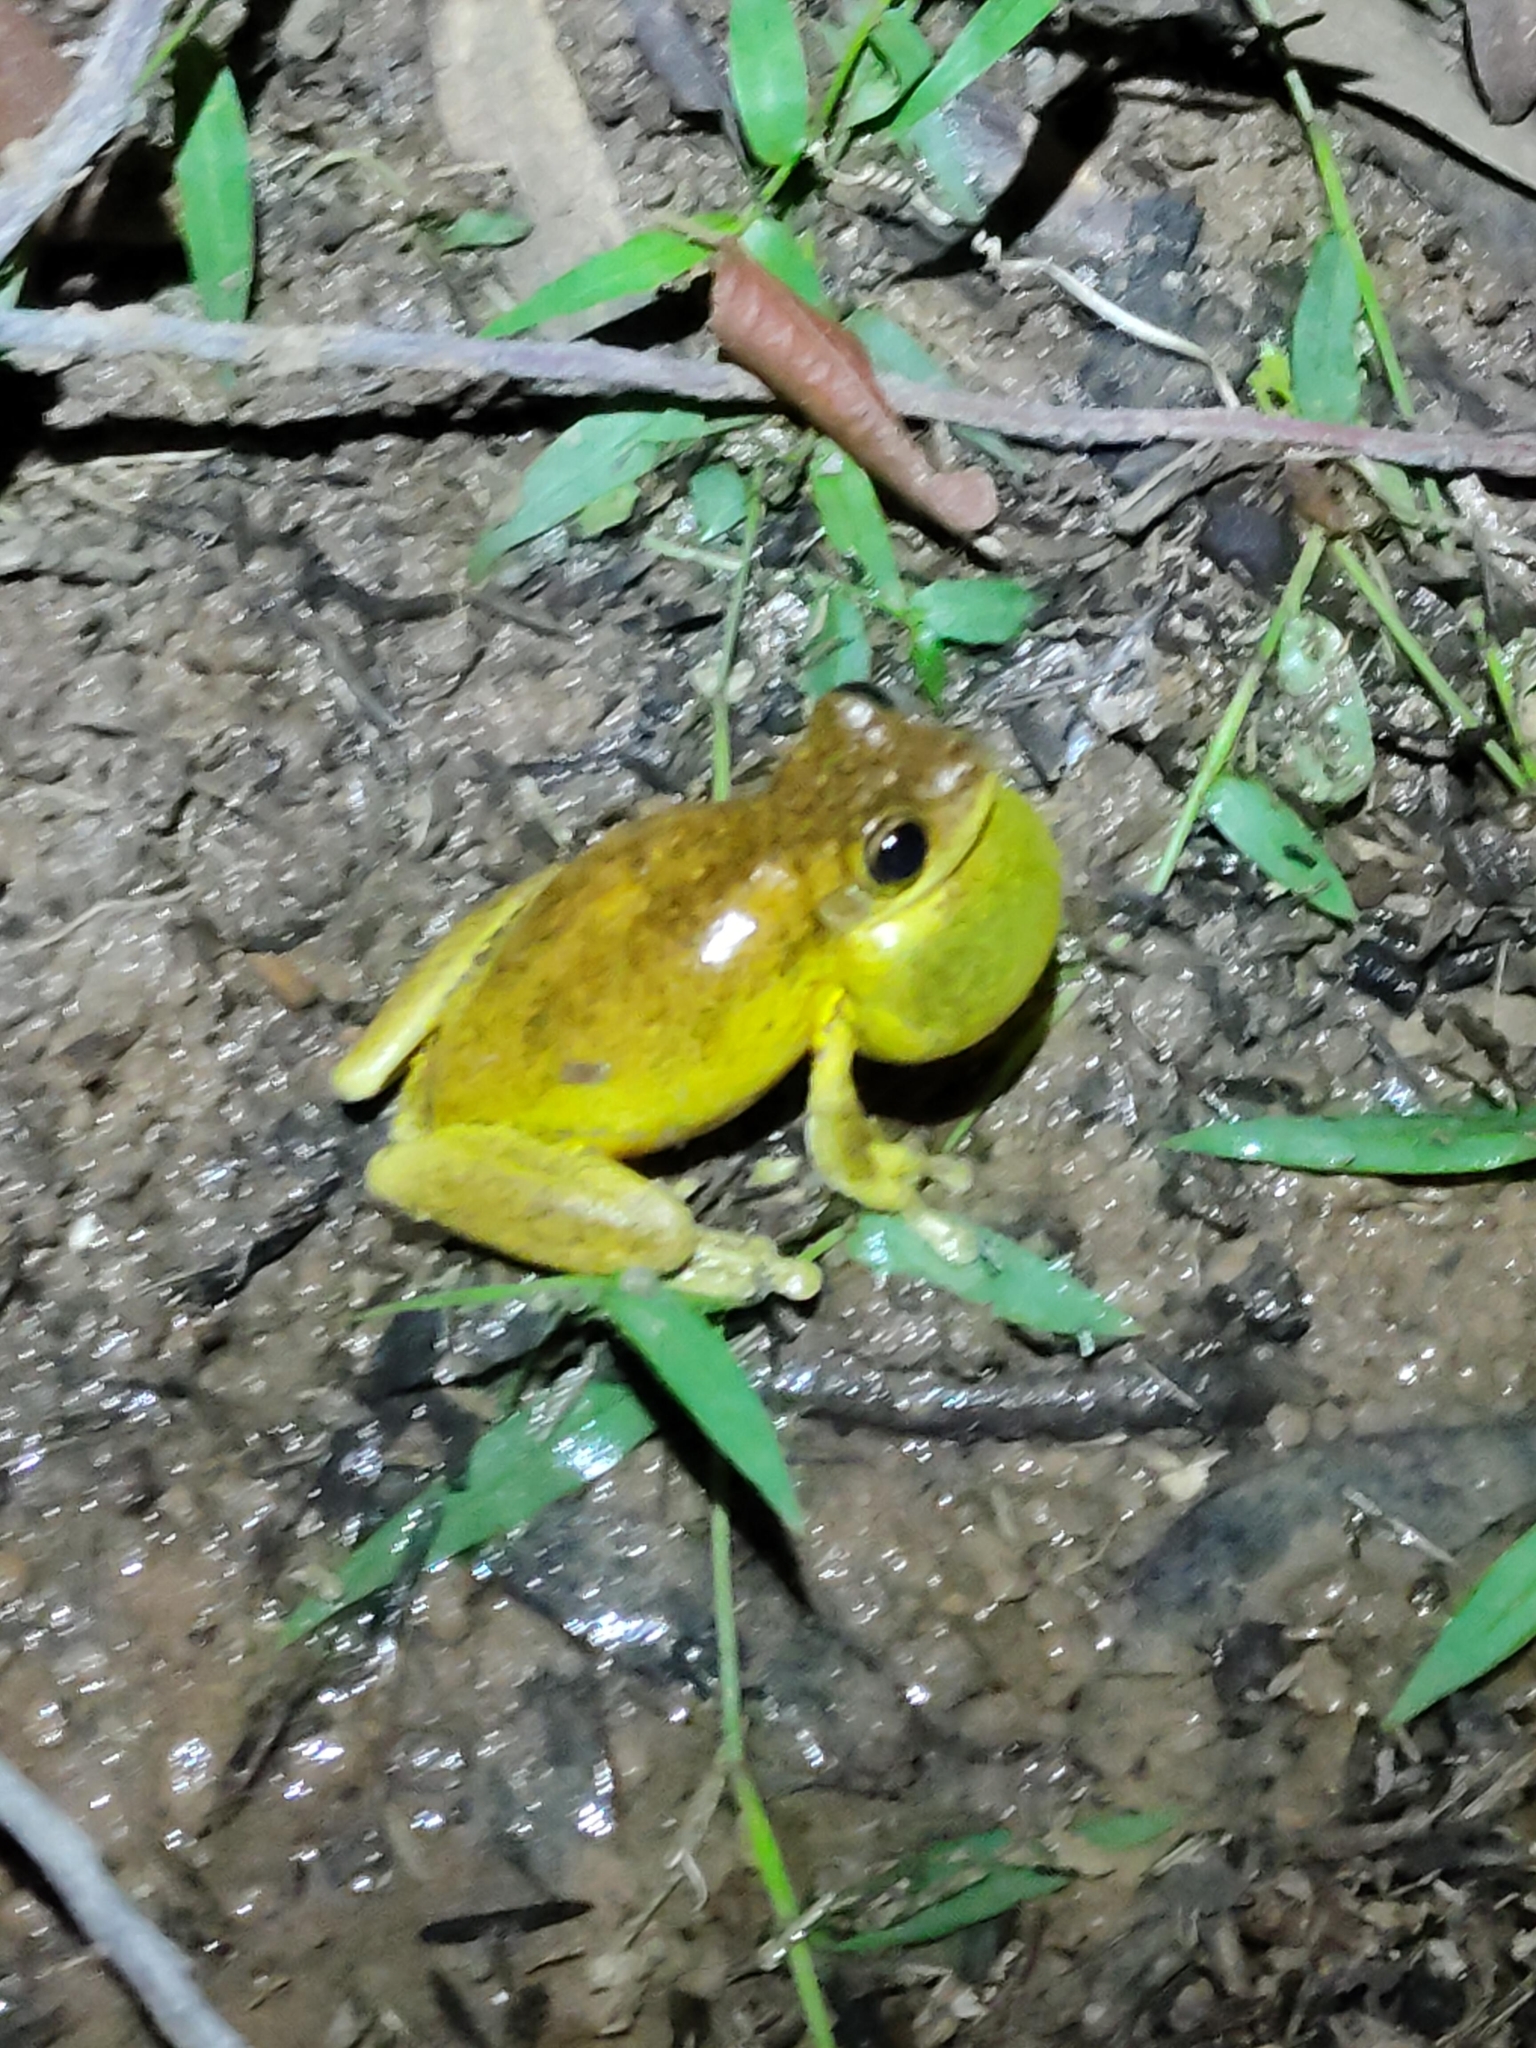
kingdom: Animalia
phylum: Chordata
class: Amphibia
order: Anura
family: Pelodryadidae
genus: Litoria
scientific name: Litoria tyleri
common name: Laughing tree frog
